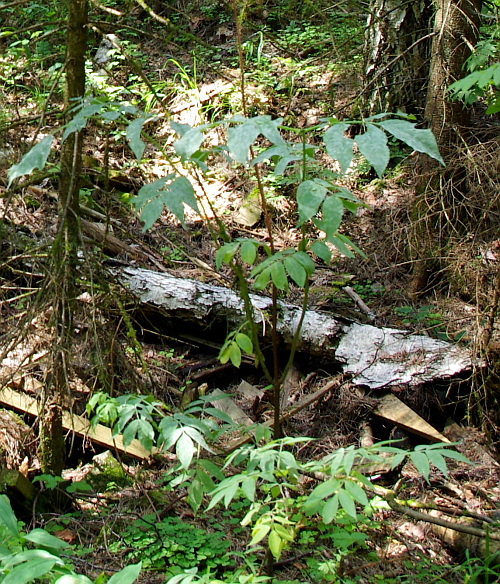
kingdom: Plantae
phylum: Tracheophyta
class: Magnoliopsida
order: Dipsacales
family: Viburnaceae
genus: Sambucus
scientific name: Sambucus racemosa
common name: Red-berried elder
